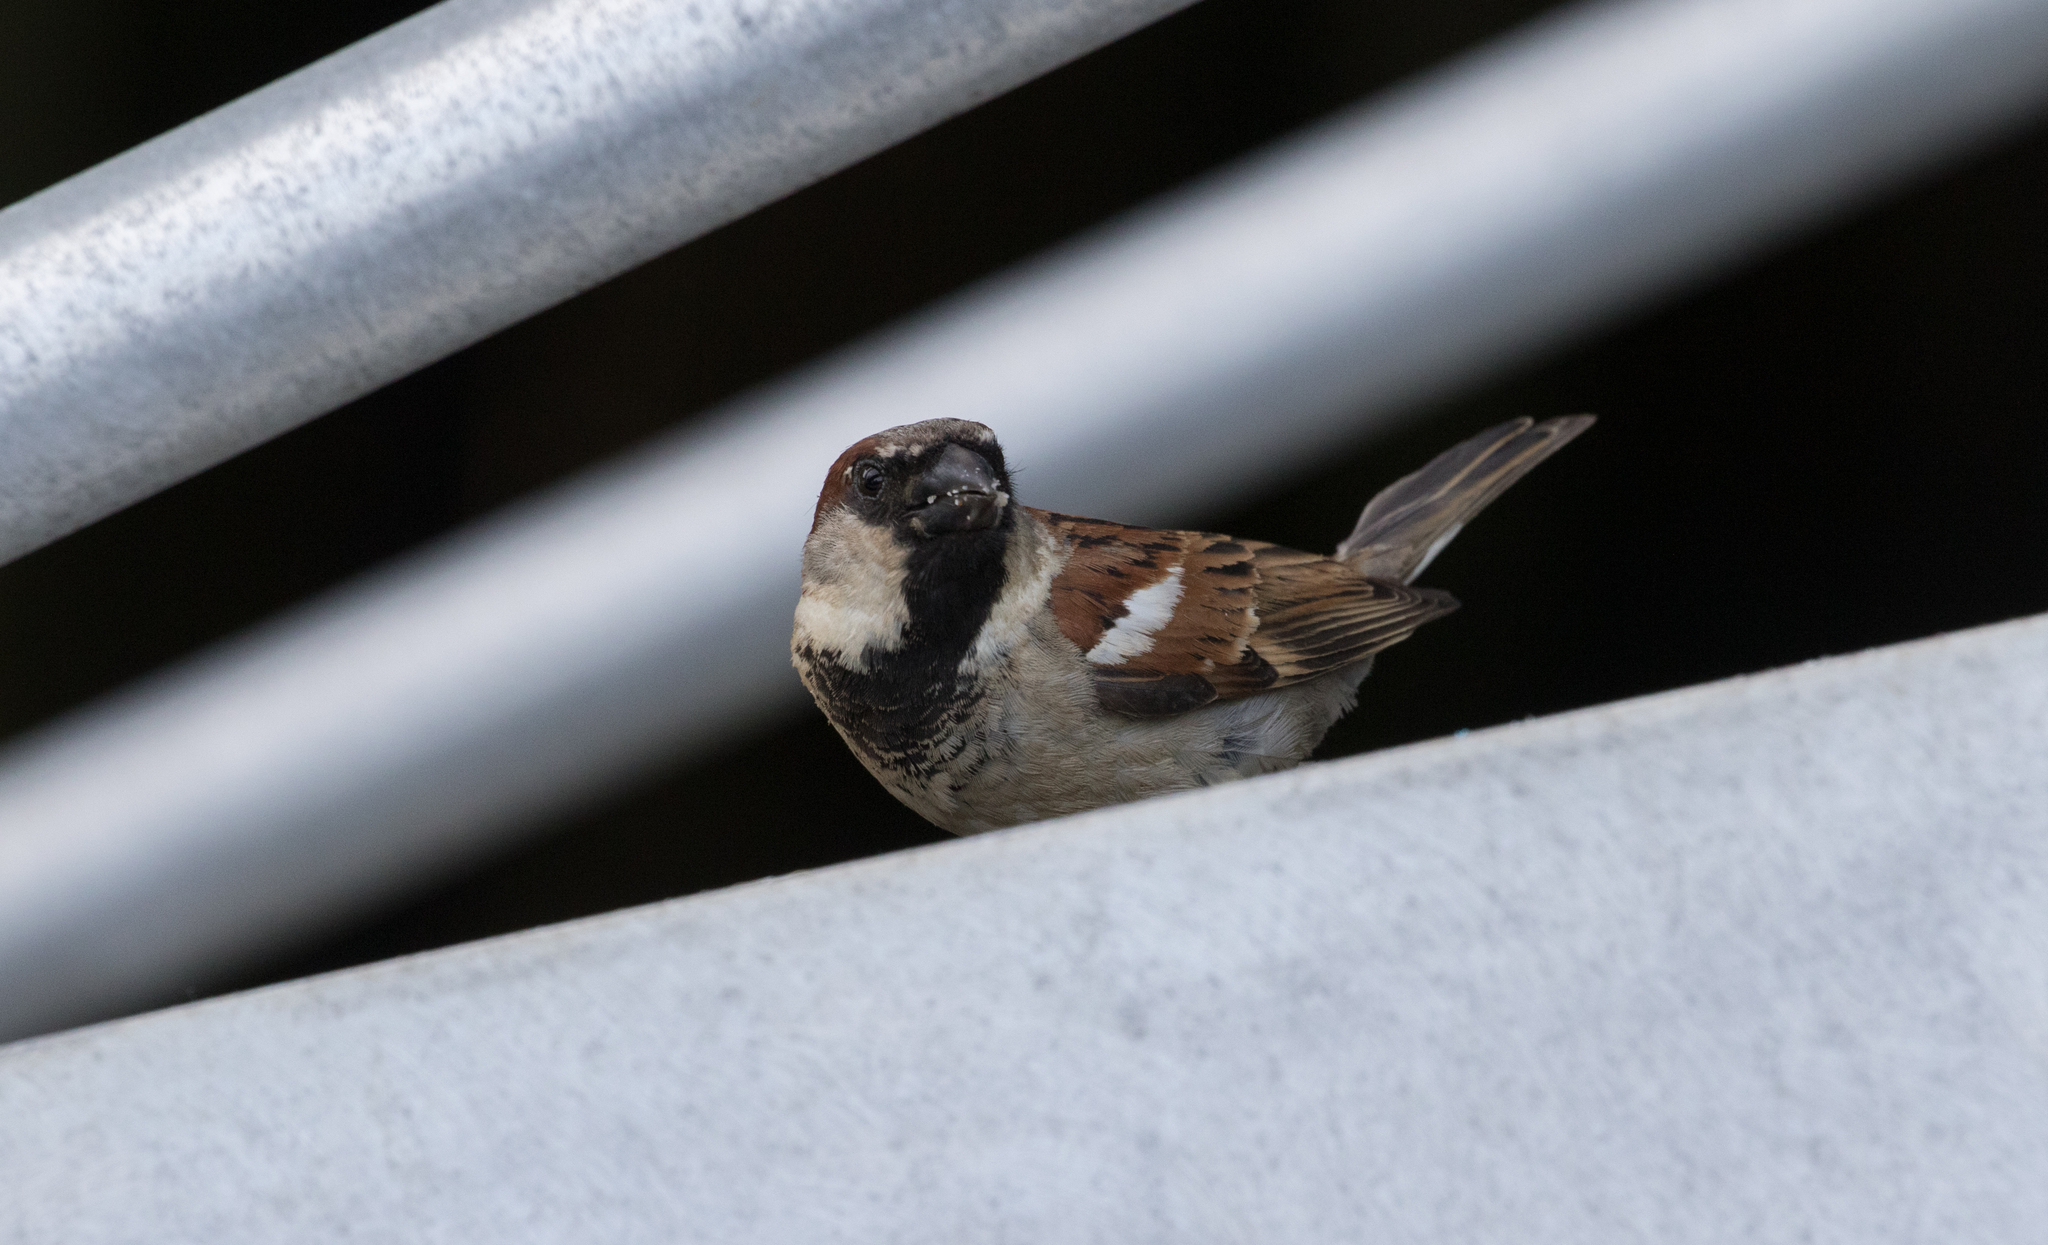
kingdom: Animalia
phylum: Chordata
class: Aves
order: Passeriformes
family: Passeridae
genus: Passer
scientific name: Passer domesticus
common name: House sparrow
